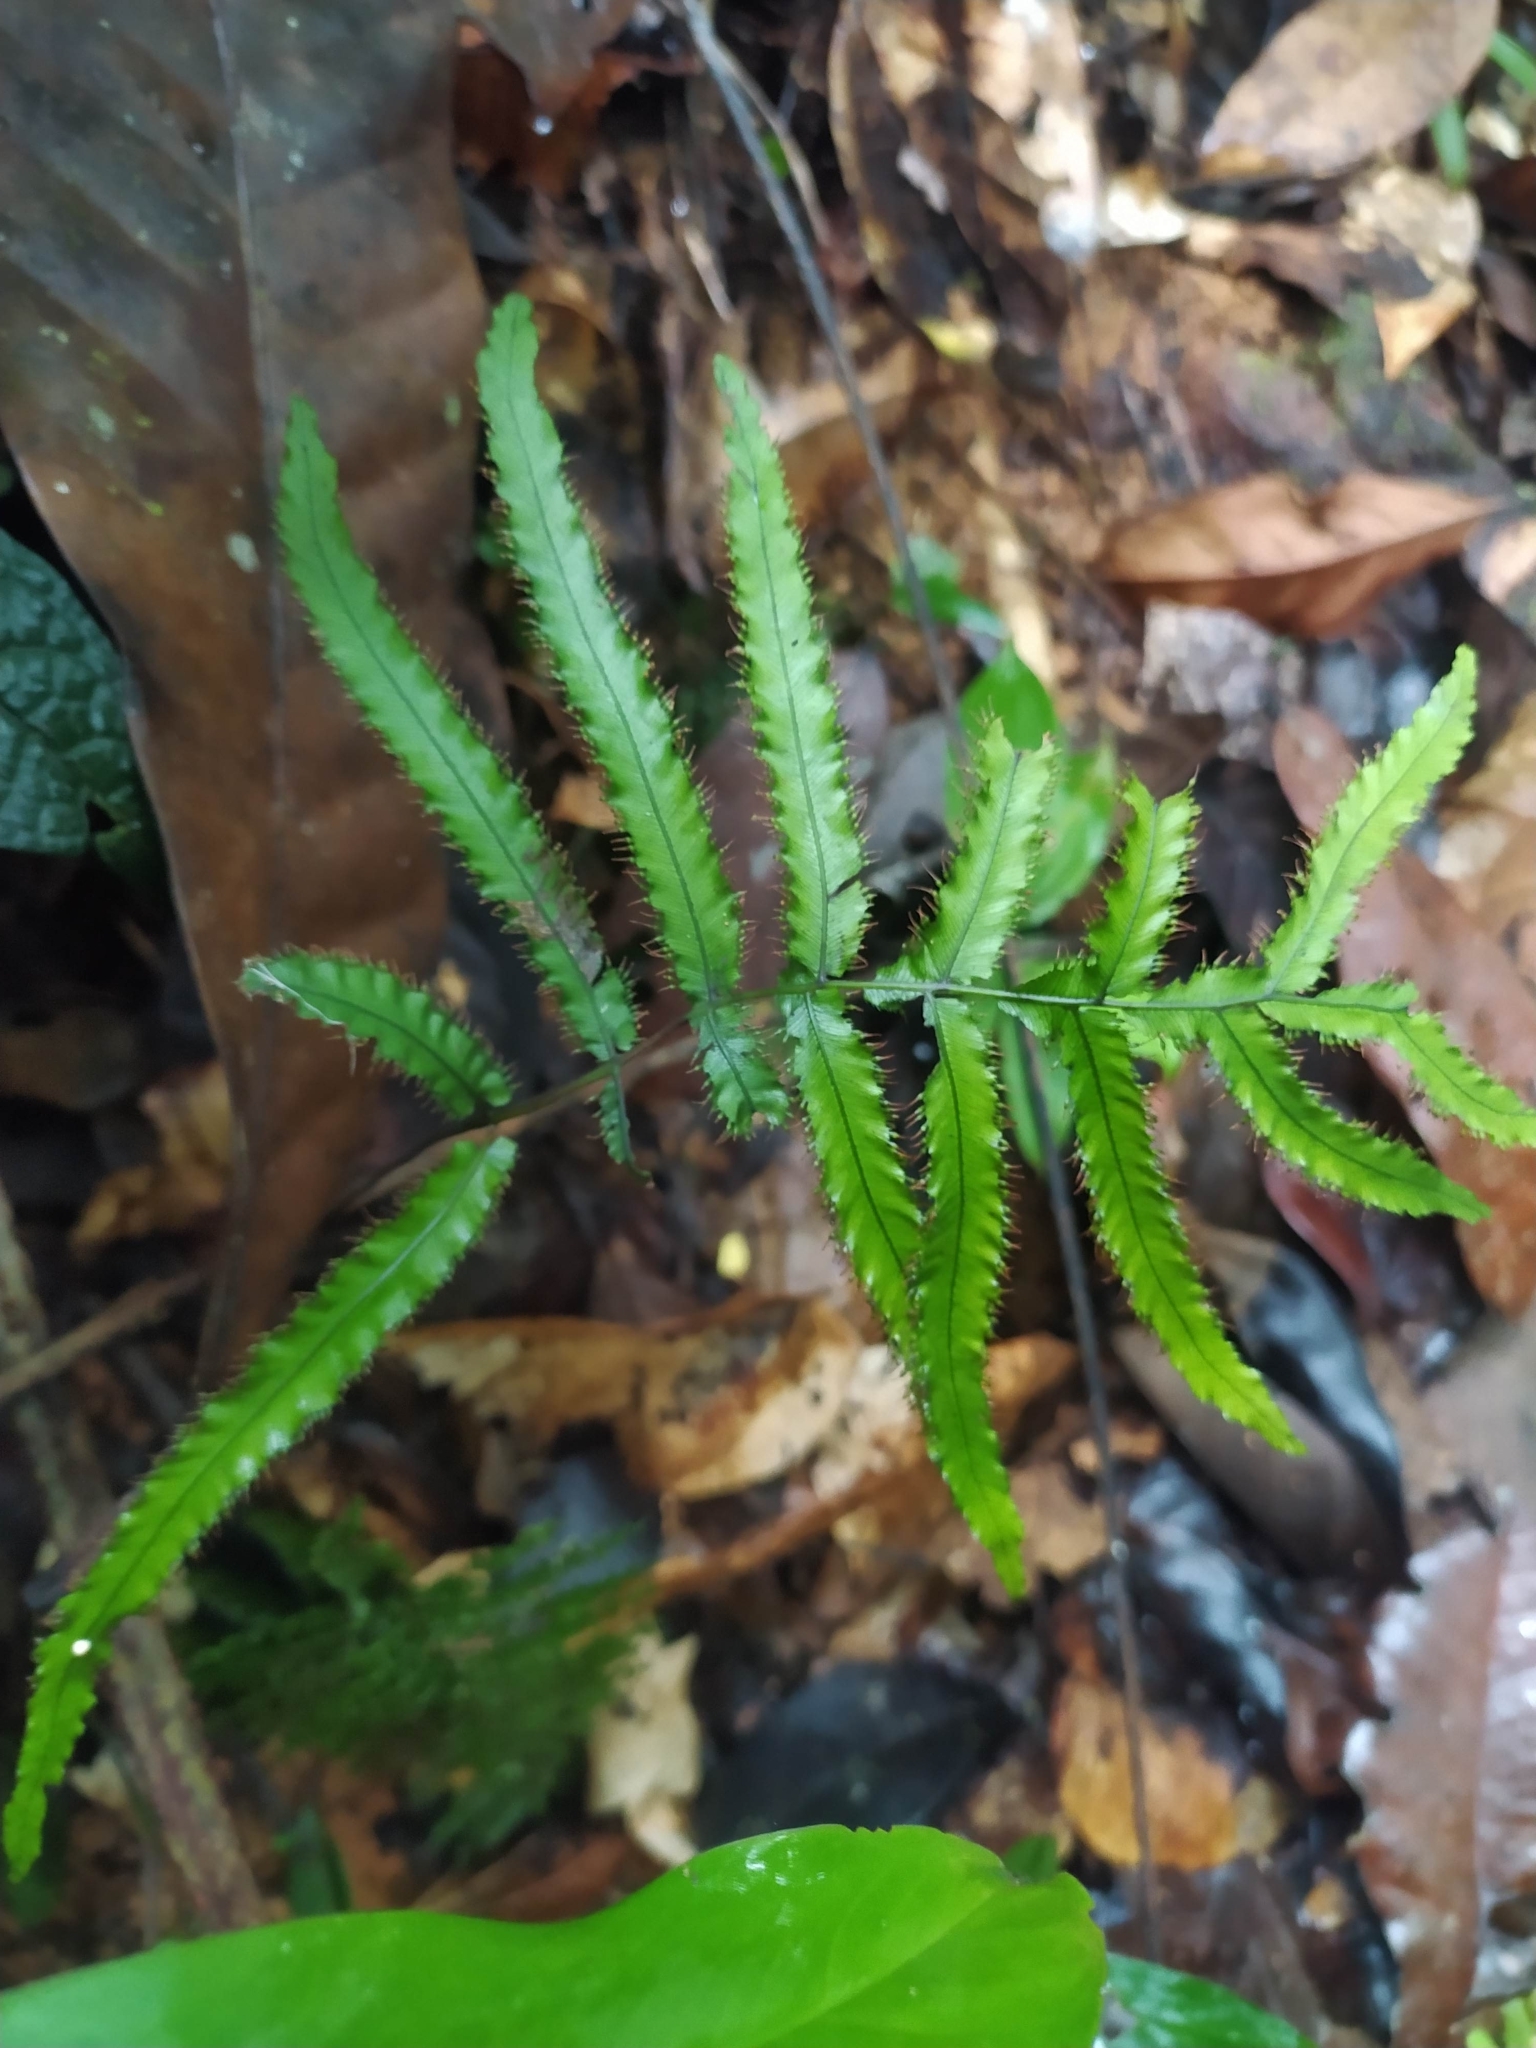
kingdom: Plantae
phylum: Tracheophyta
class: Polypodiopsida
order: Hymenophyllales
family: Hymenophyllaceae
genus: Trichomanes
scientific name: Trichomanes pinnatum
